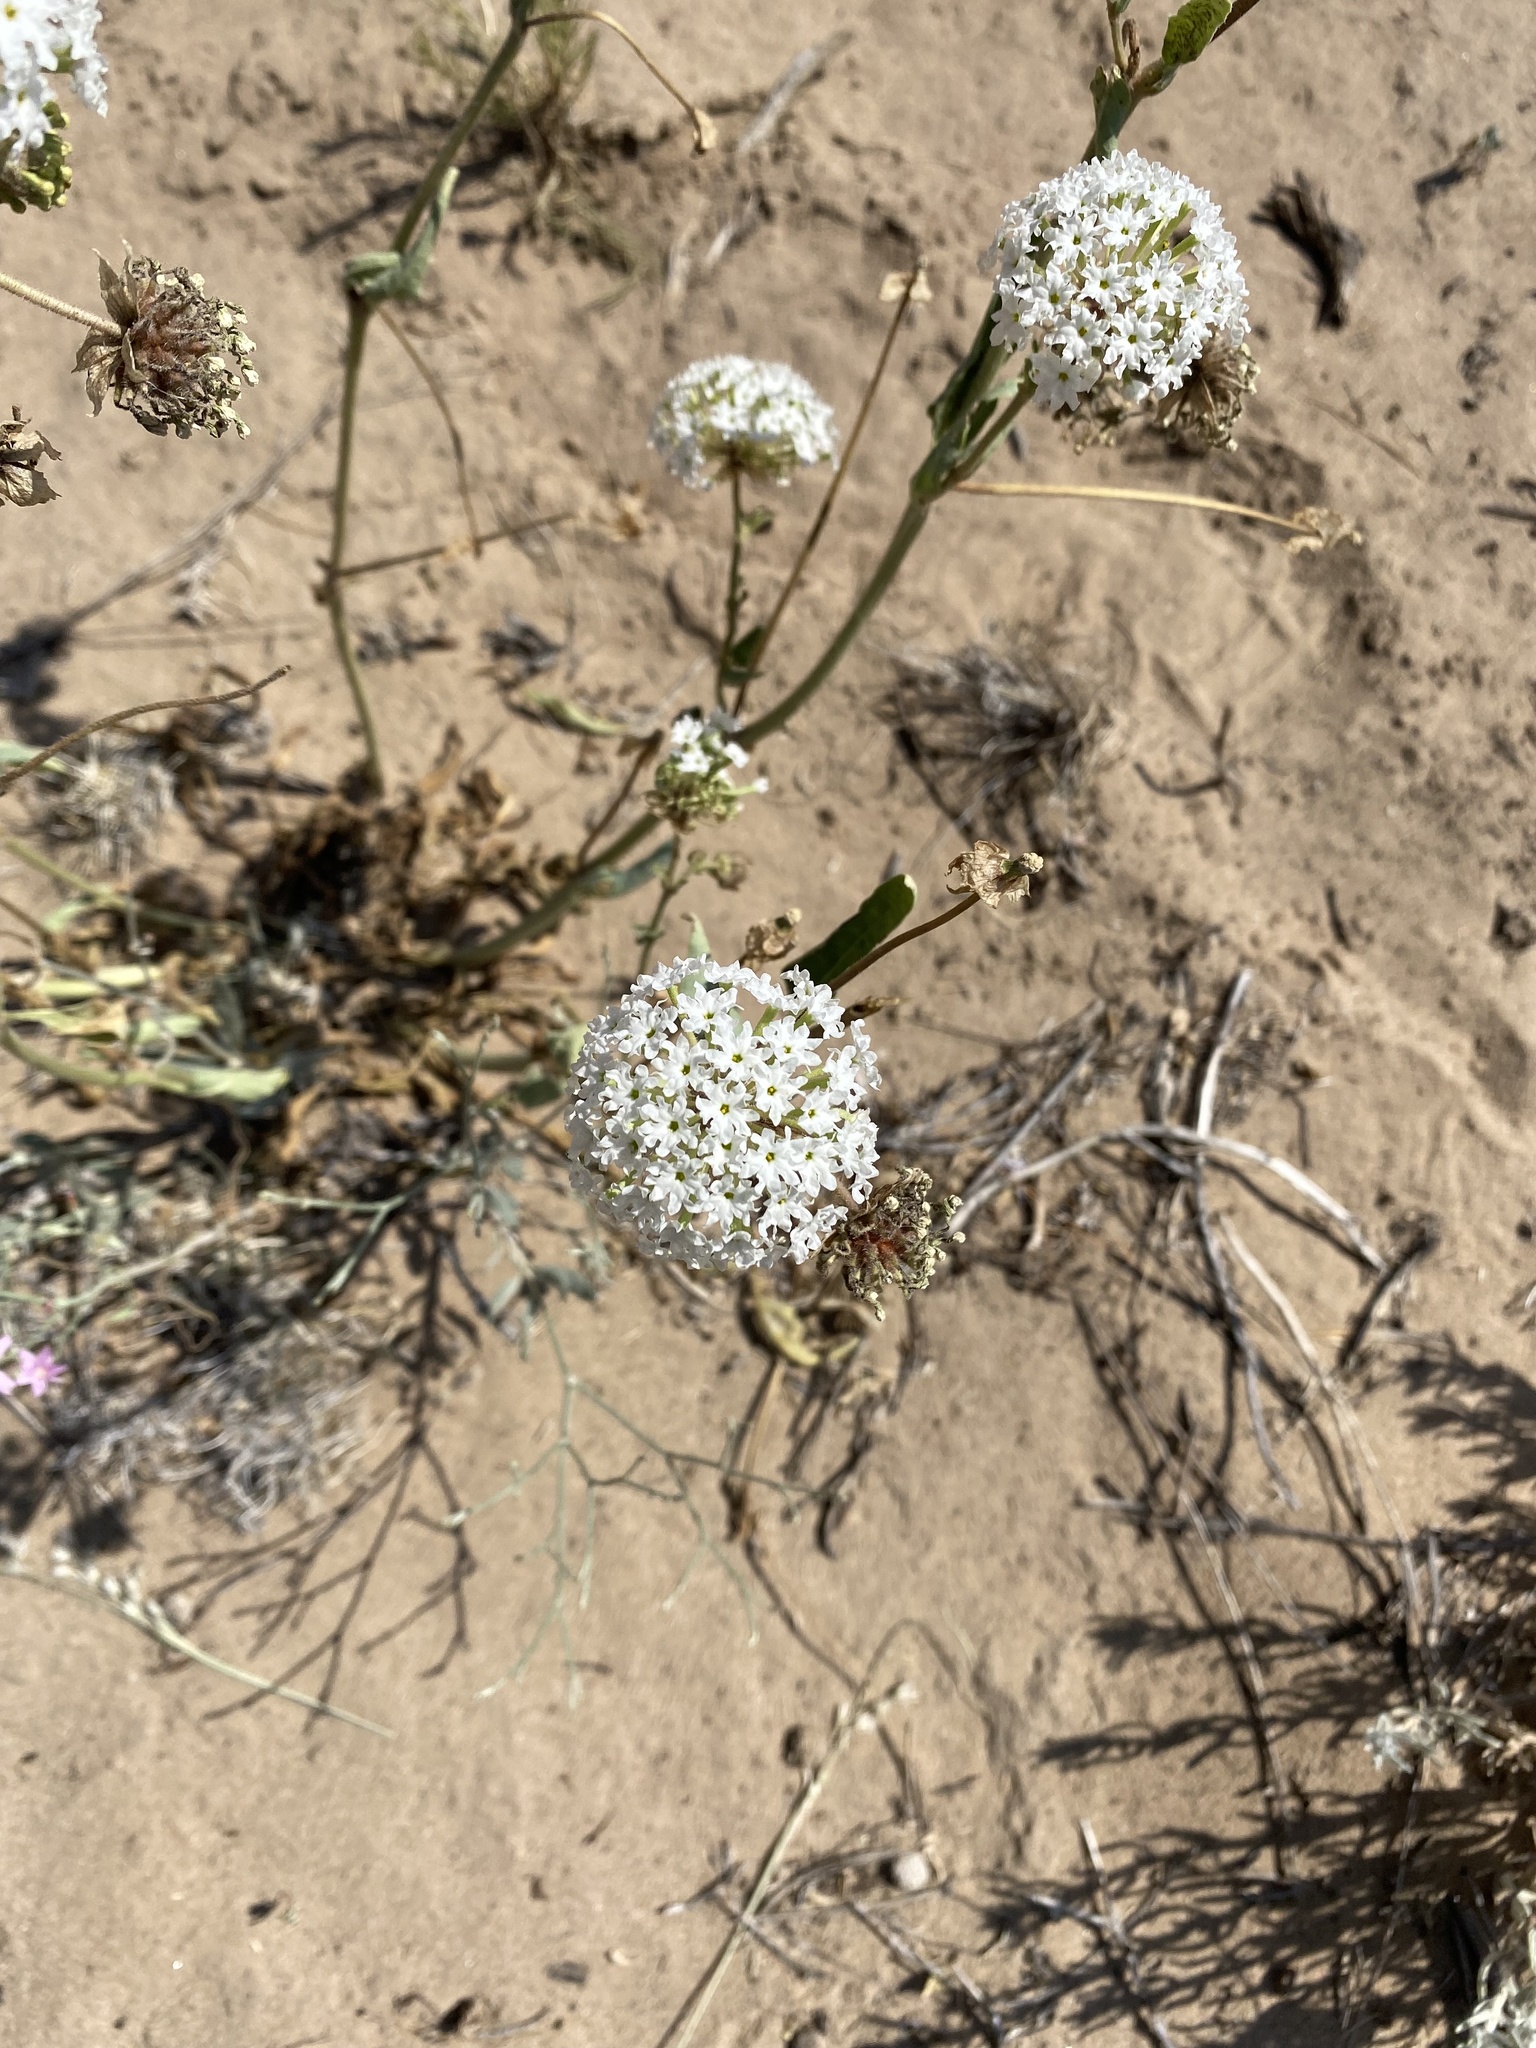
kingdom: Plantae
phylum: Tracheophyta
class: Magnoliopsida
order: Caryophyllales
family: Nyctaginaceae
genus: Abronia
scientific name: Abronia fragrans
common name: Fragrant sand-verbena
